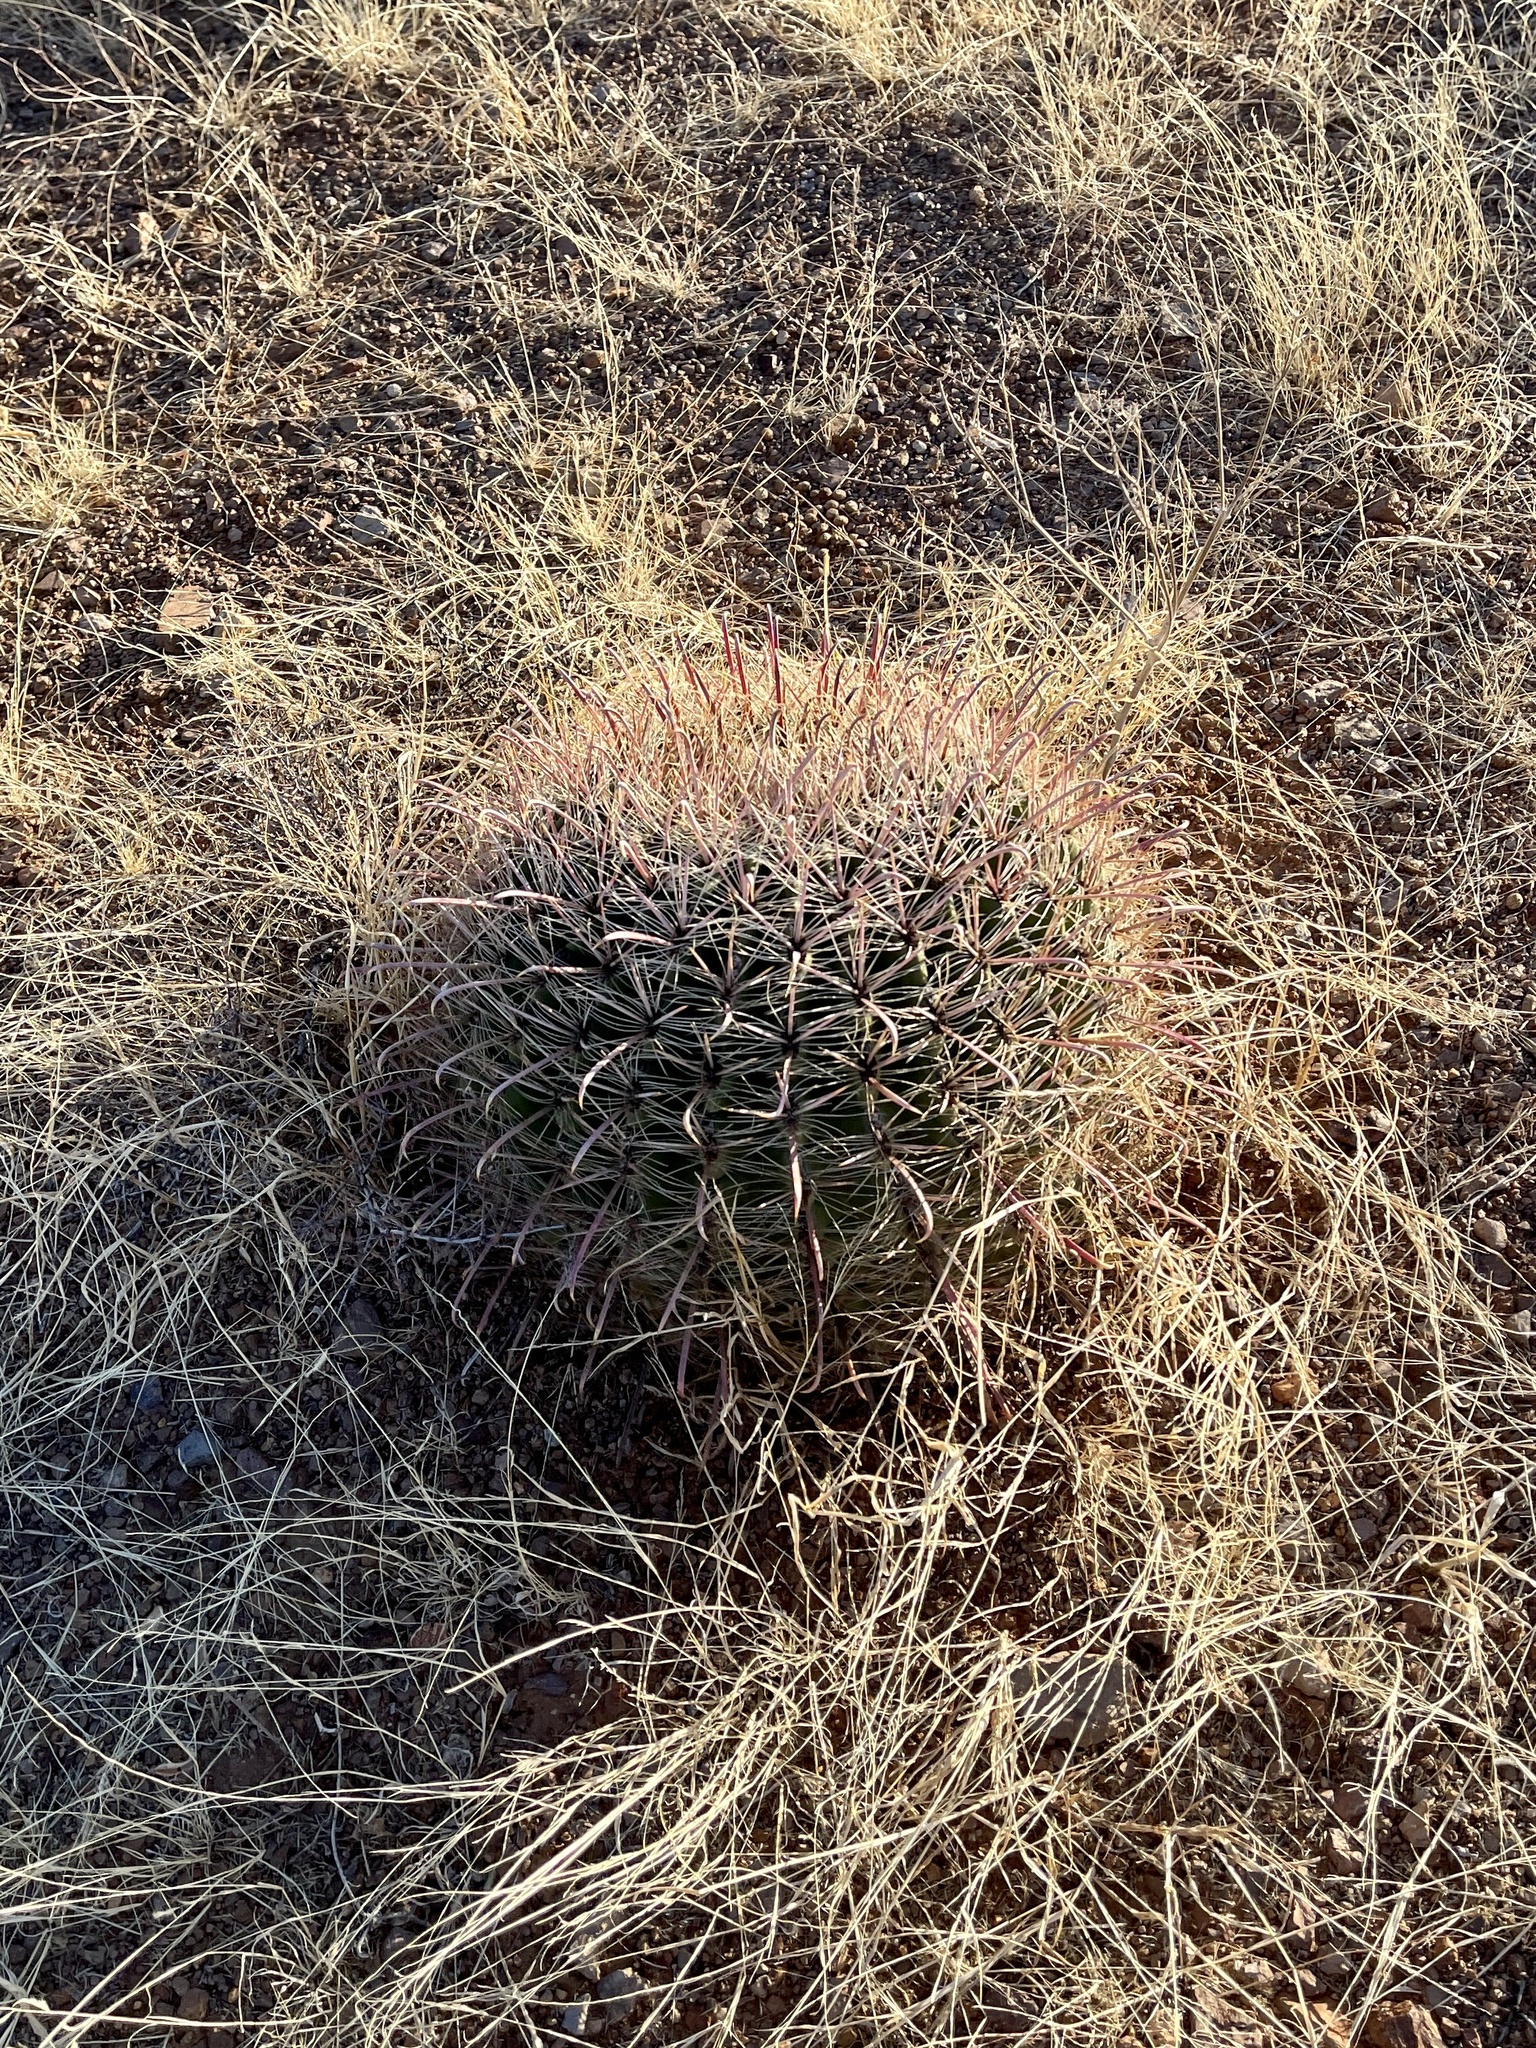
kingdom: Plantae
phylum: Tracheophyta
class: Magnoliopsida
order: Caryophyllales
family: Cactaceae
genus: Ferocactus
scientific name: Ferocactus wislizeni
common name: Candy barrel cactus
